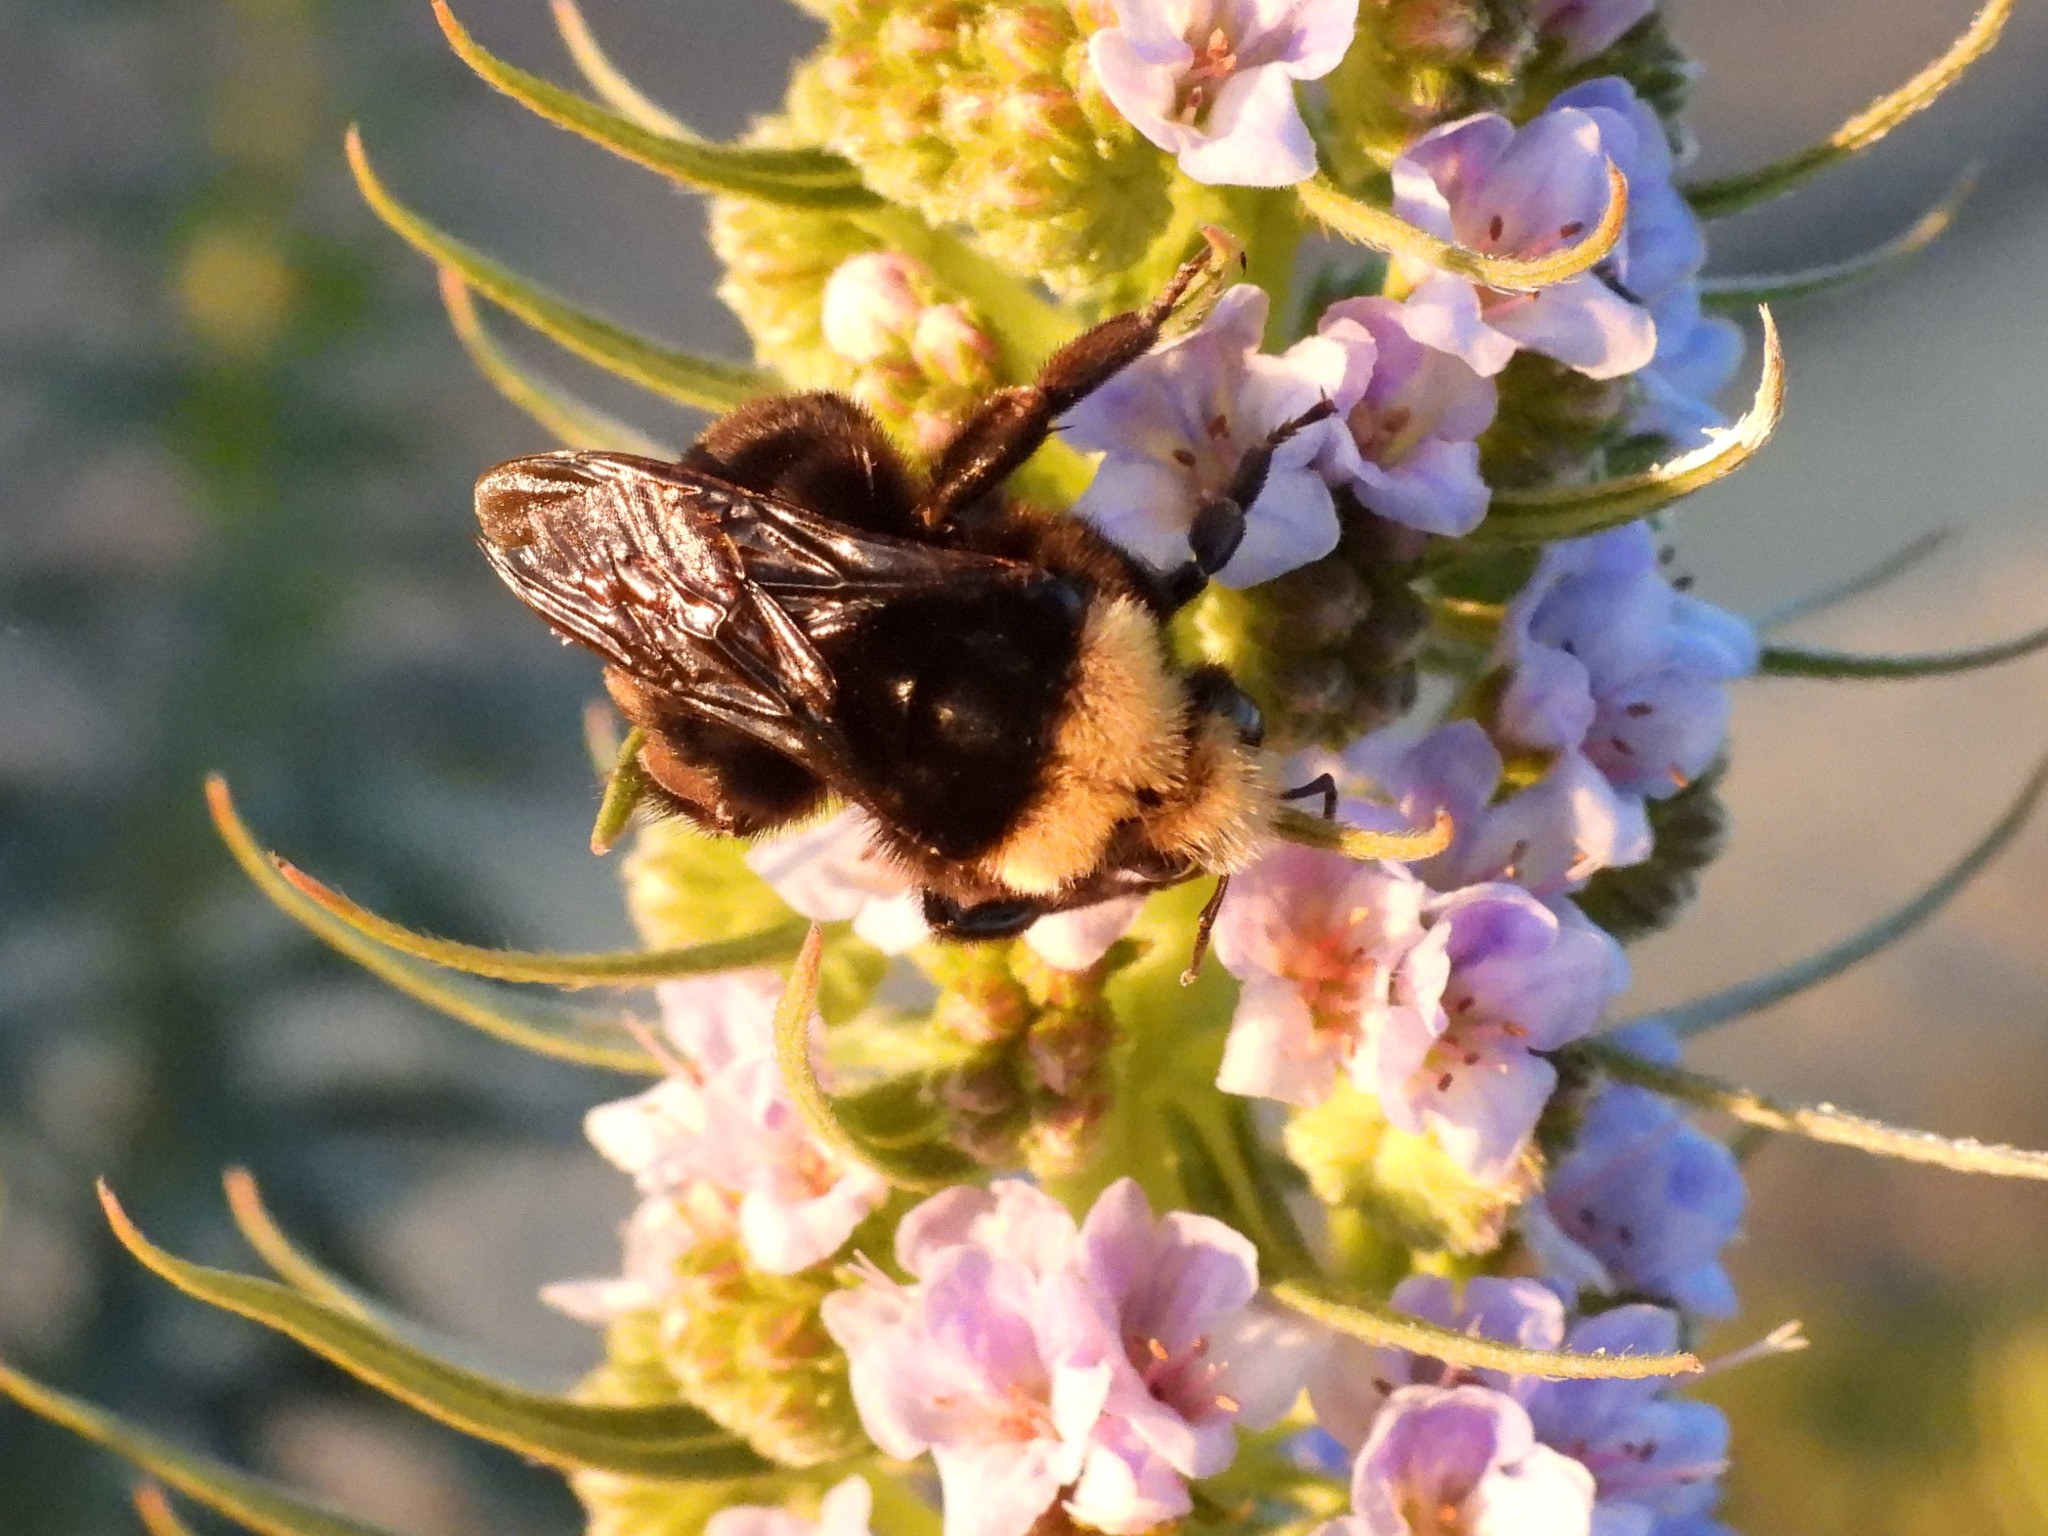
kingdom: Animalia
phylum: Arthropoda
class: Insecta
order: Hymenoptera
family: Apidae
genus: Bombus
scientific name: Bombus vosnesenskii
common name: Vosnesensky bumble bee
